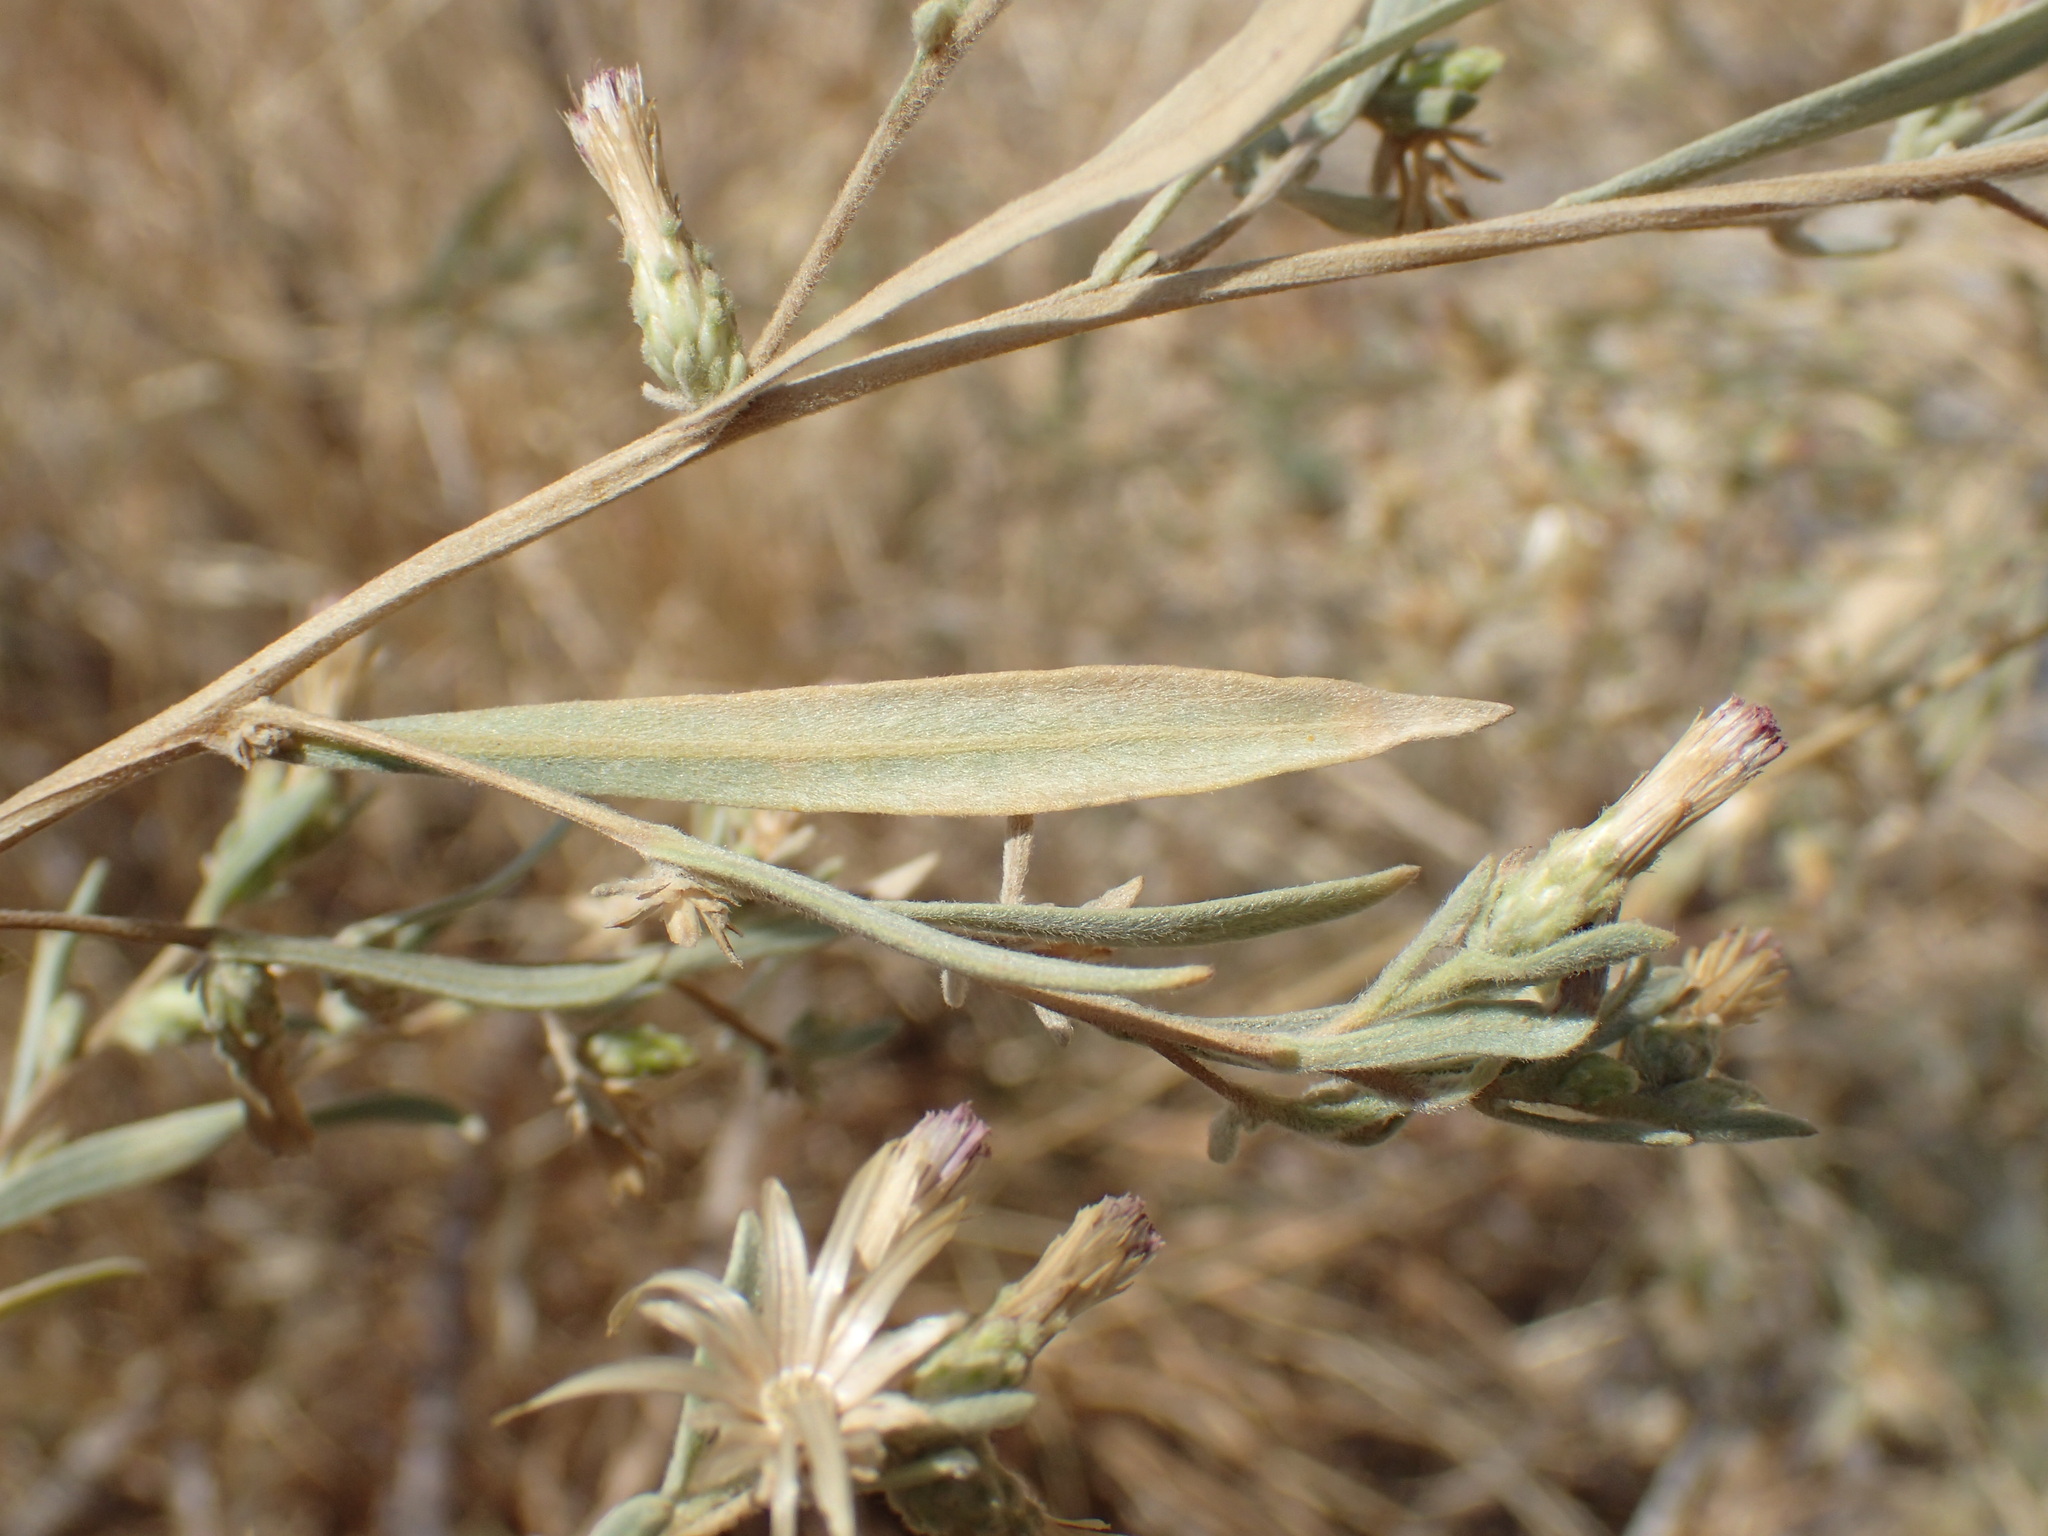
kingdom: Plantae
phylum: Tracheophyta
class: Magnoliopsida
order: Asterales
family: Asteraceae
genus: Pechuel-loeschea
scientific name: Pechuel-loeschea leubnitziae
